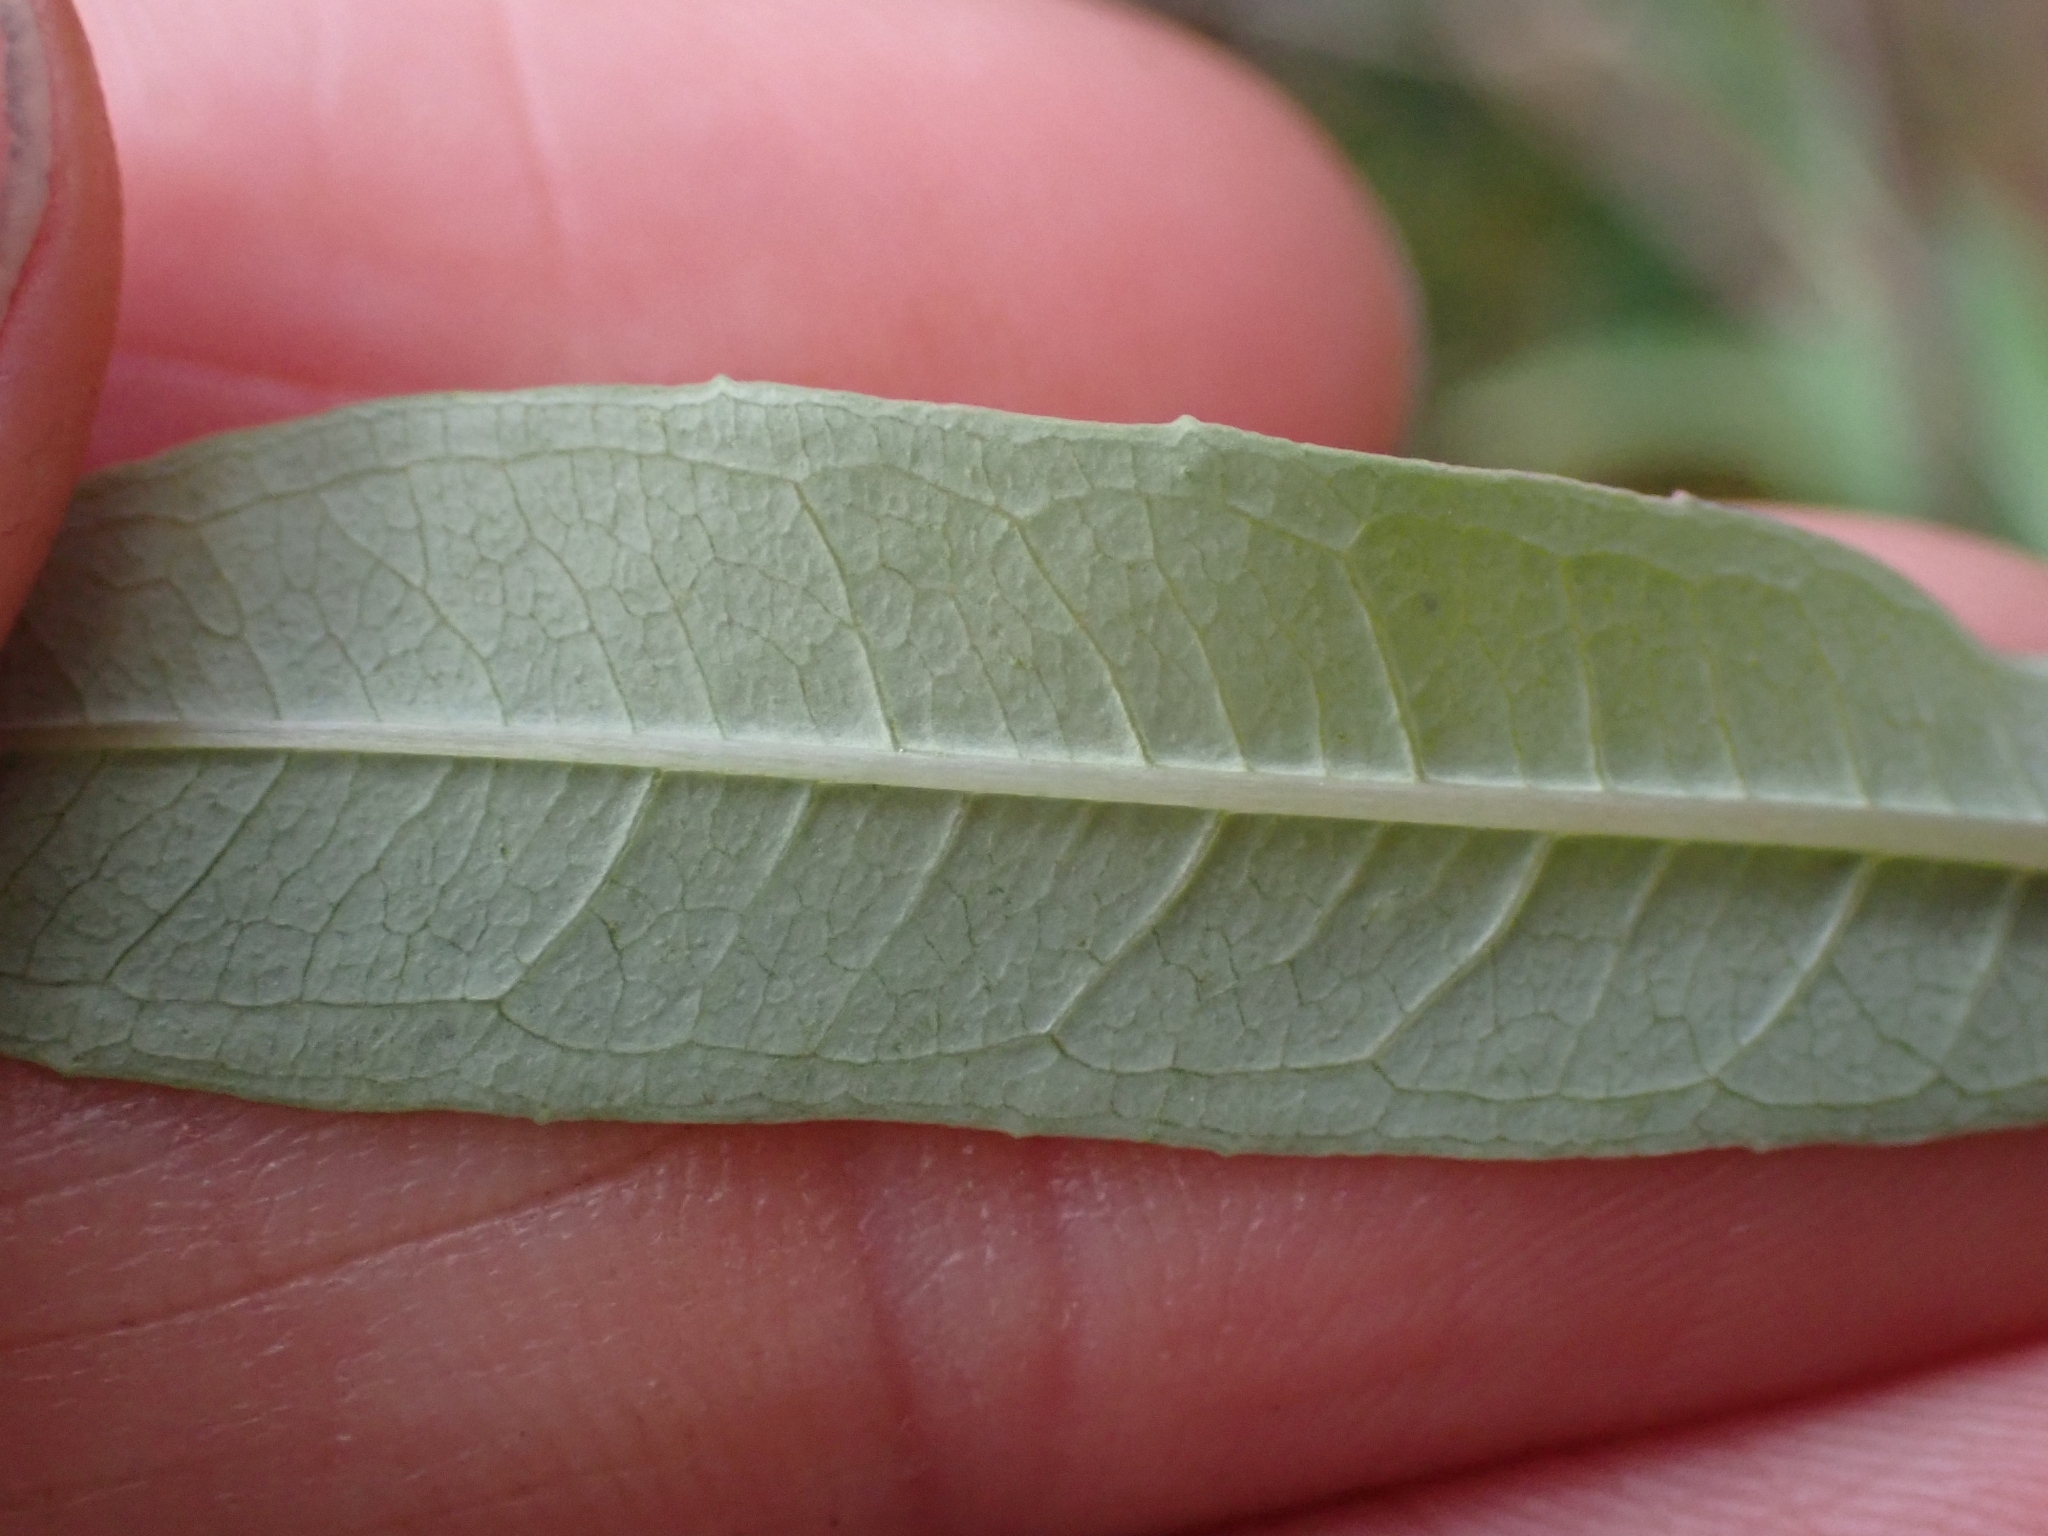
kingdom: Plantae
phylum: Tracheophyta
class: Magnoliopsida
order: Myrtales
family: Onagraceae
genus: Chamaenerion
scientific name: Chamaenerion angustifolium
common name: Fireweed
